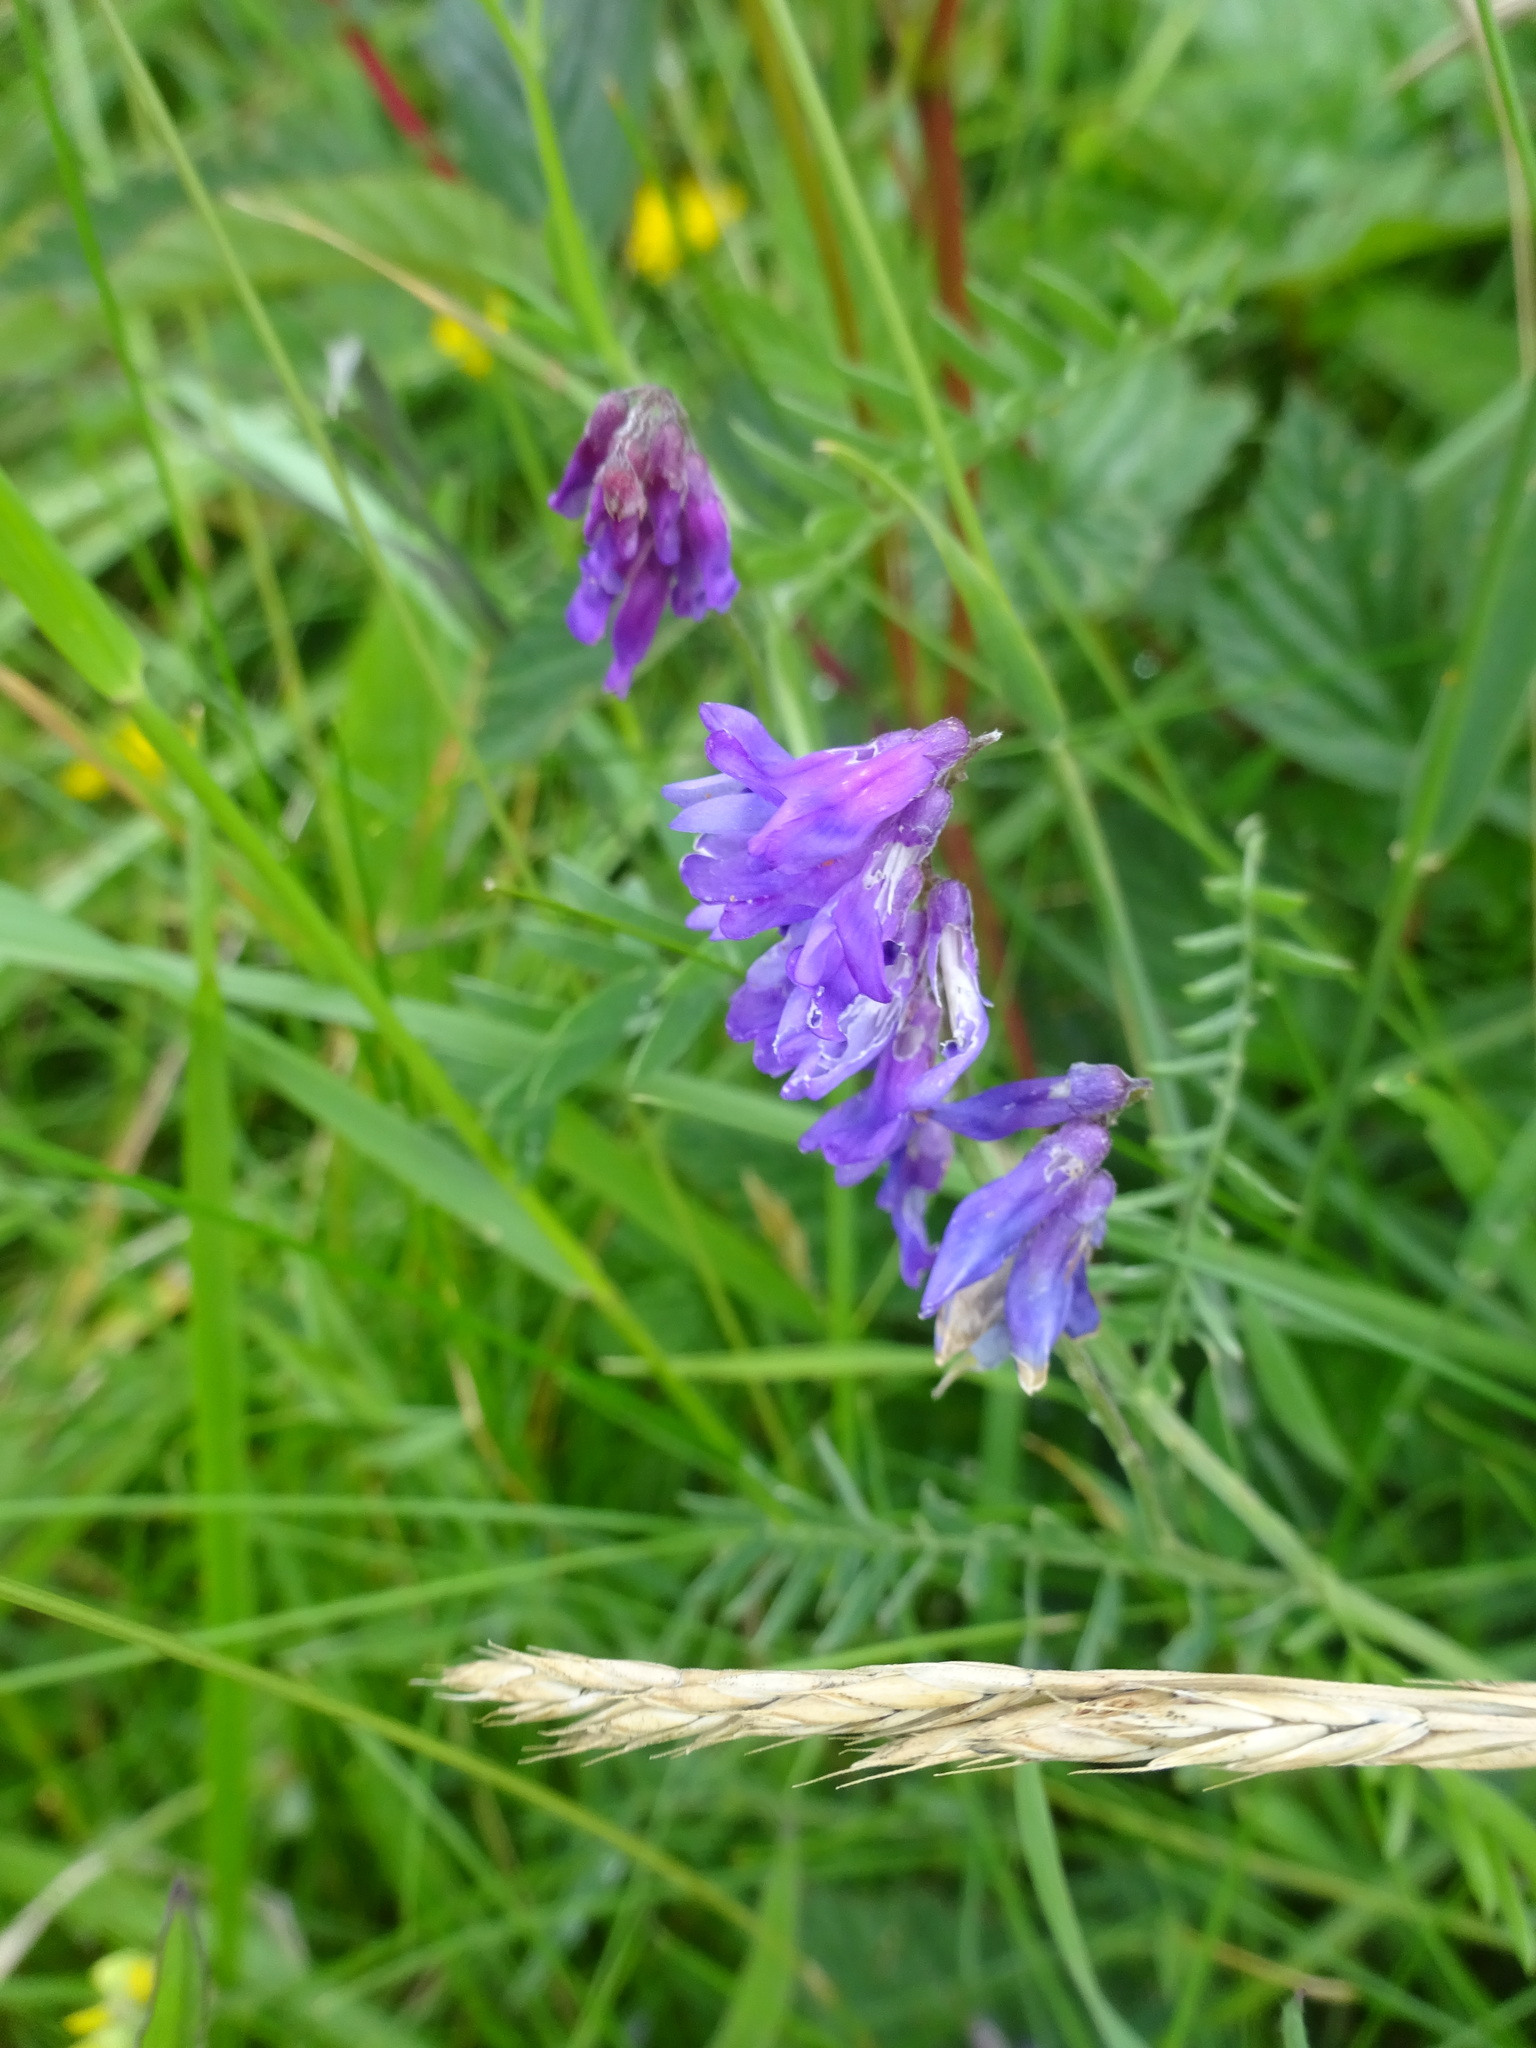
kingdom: Plantae
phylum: Tracheophyta
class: Magnoliopsida
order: Fabales
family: Fabaceae
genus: Vicia
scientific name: Vicia cracca
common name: Bird vetch
